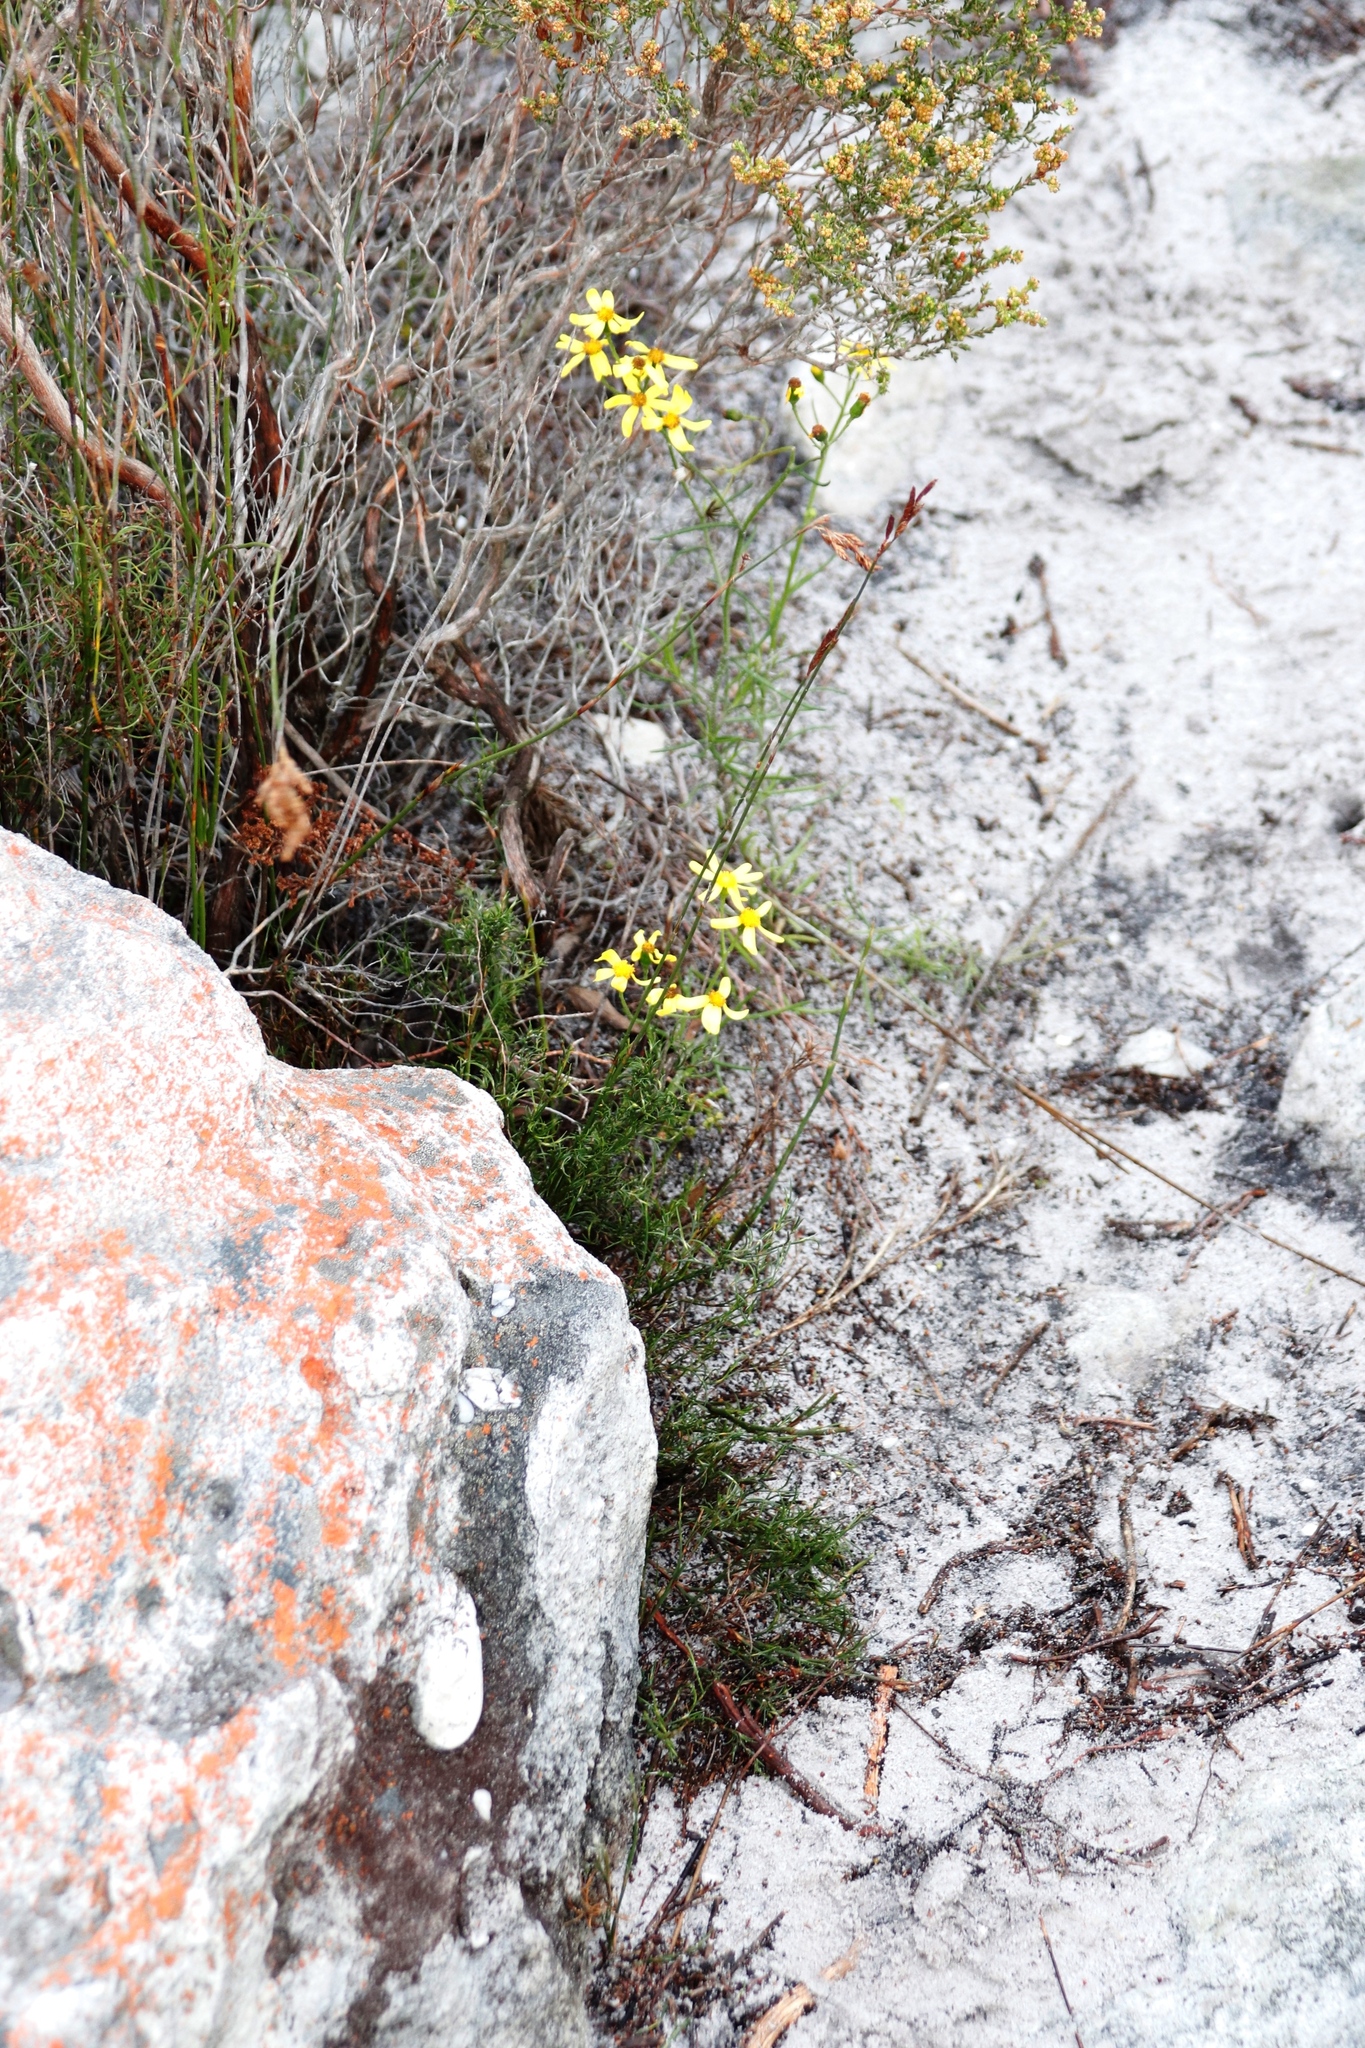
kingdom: Plantae
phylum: Tracheophyta
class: Magnoliopsida
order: Asterales
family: Asteraceae
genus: Senecio
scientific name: Senecio burchellii
